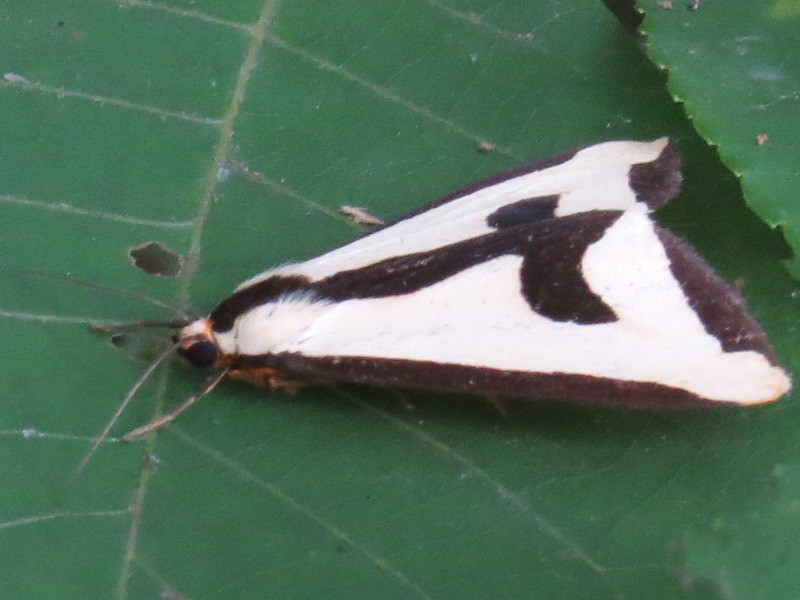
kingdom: Animalia
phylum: Arthropoda
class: Insecta
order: Lepidoptera
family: Erebidae
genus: Haploa
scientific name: Haploa clymene
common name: Clymene moth
